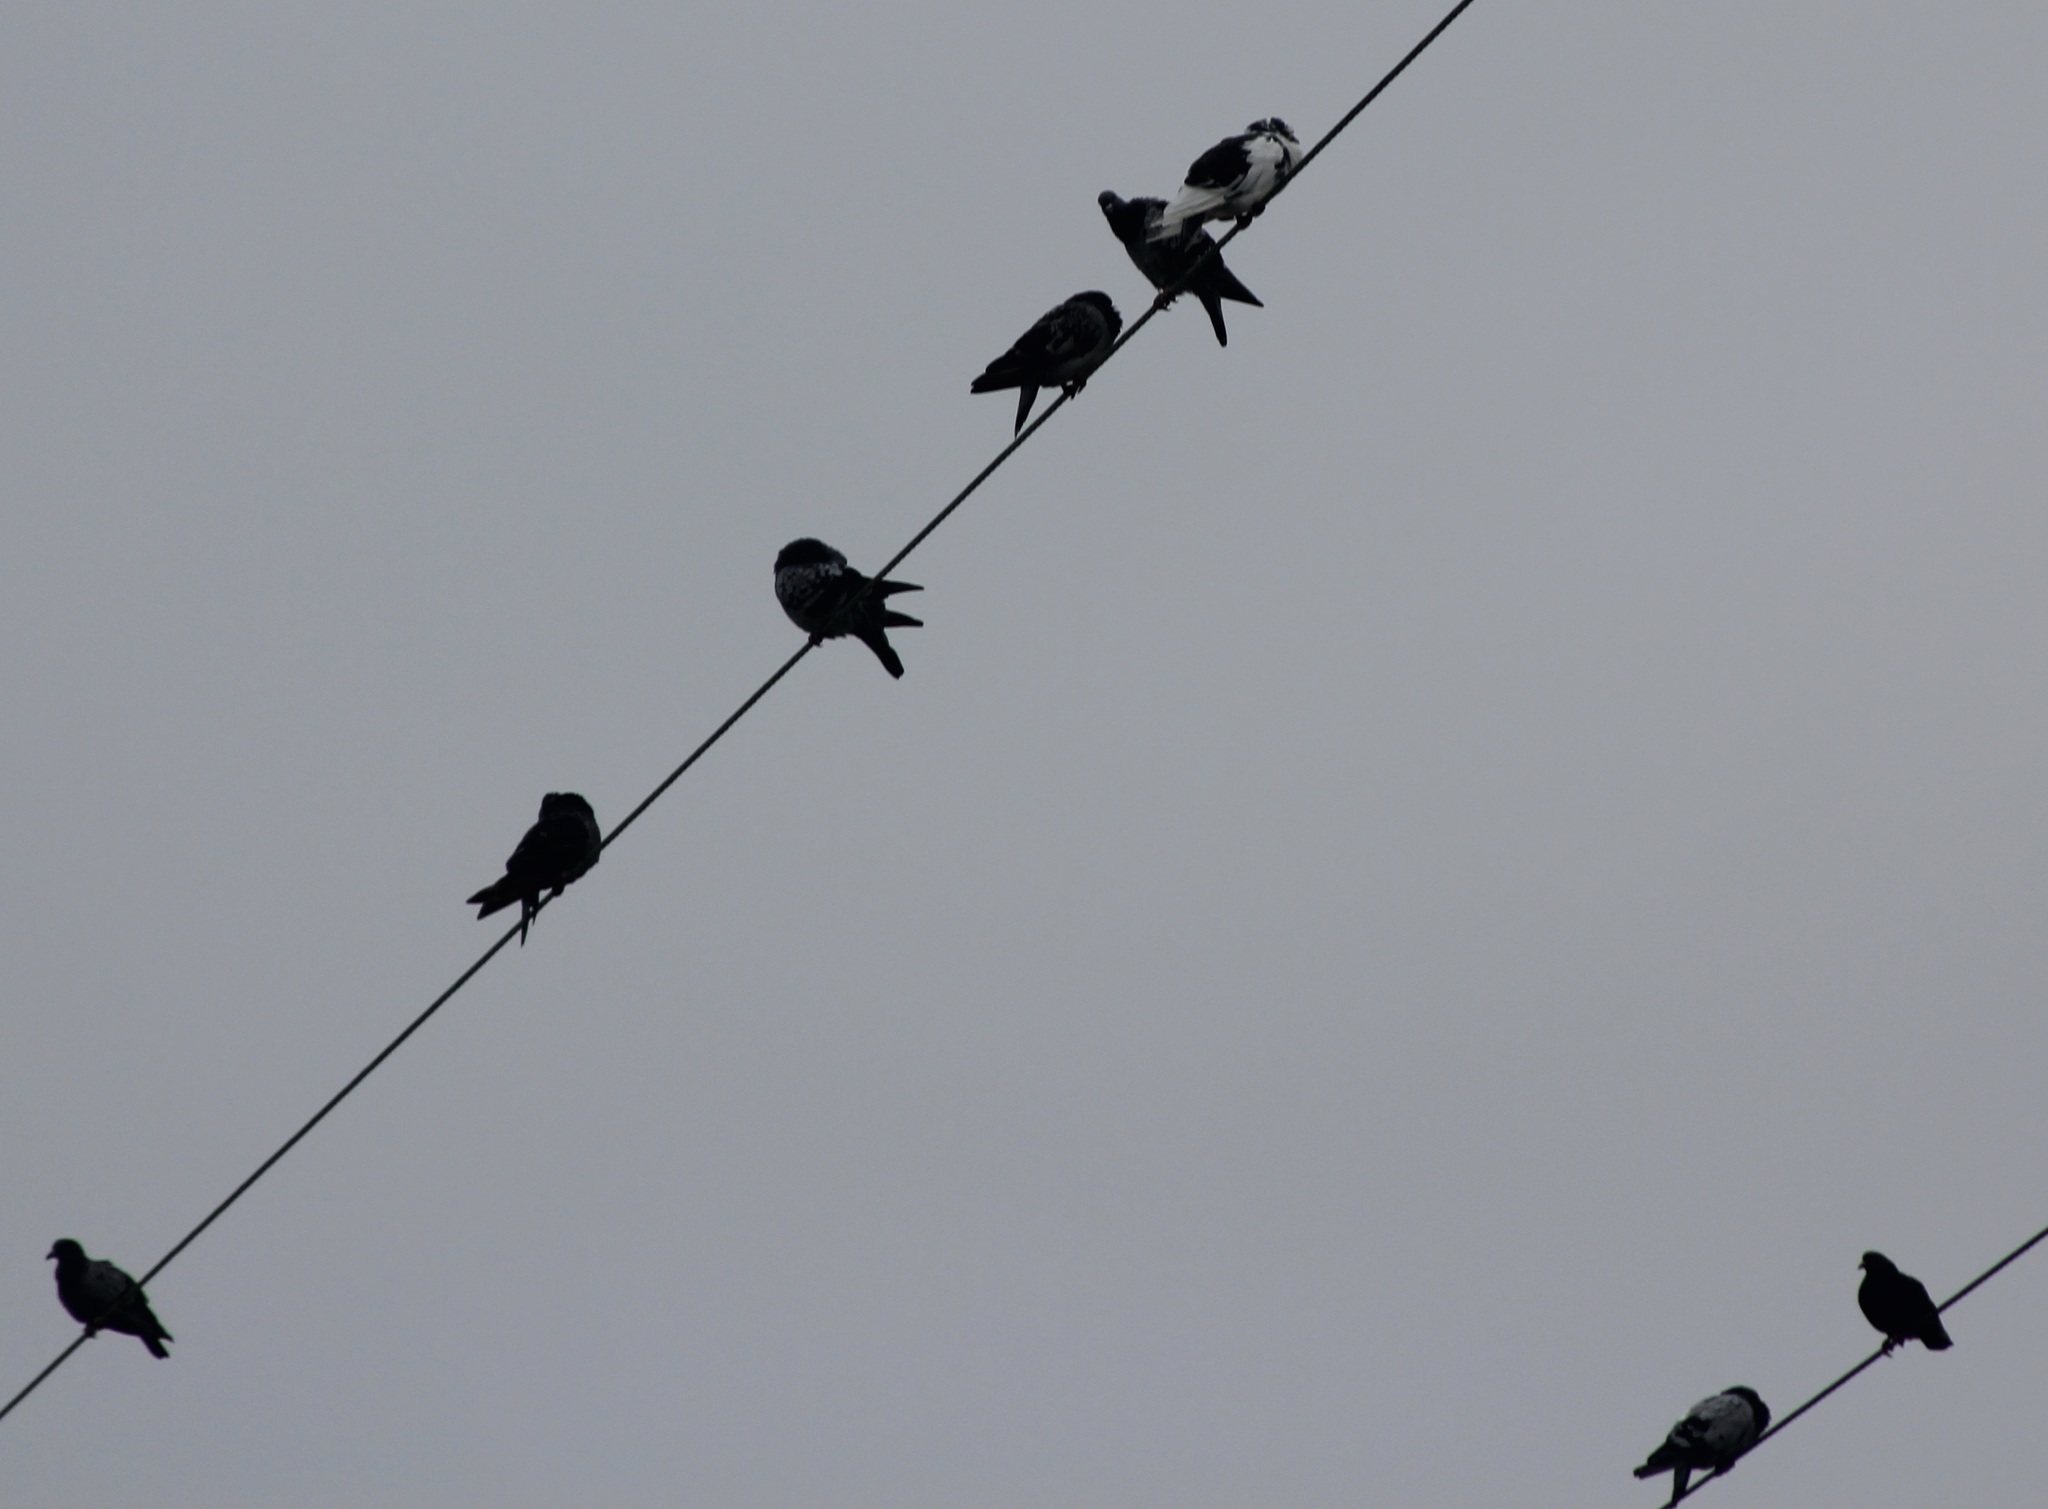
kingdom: Animalia
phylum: Chordata
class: Aves
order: Columbiformes
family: Columbidae
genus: Columba
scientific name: Columba livia
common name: Rock pigeon
